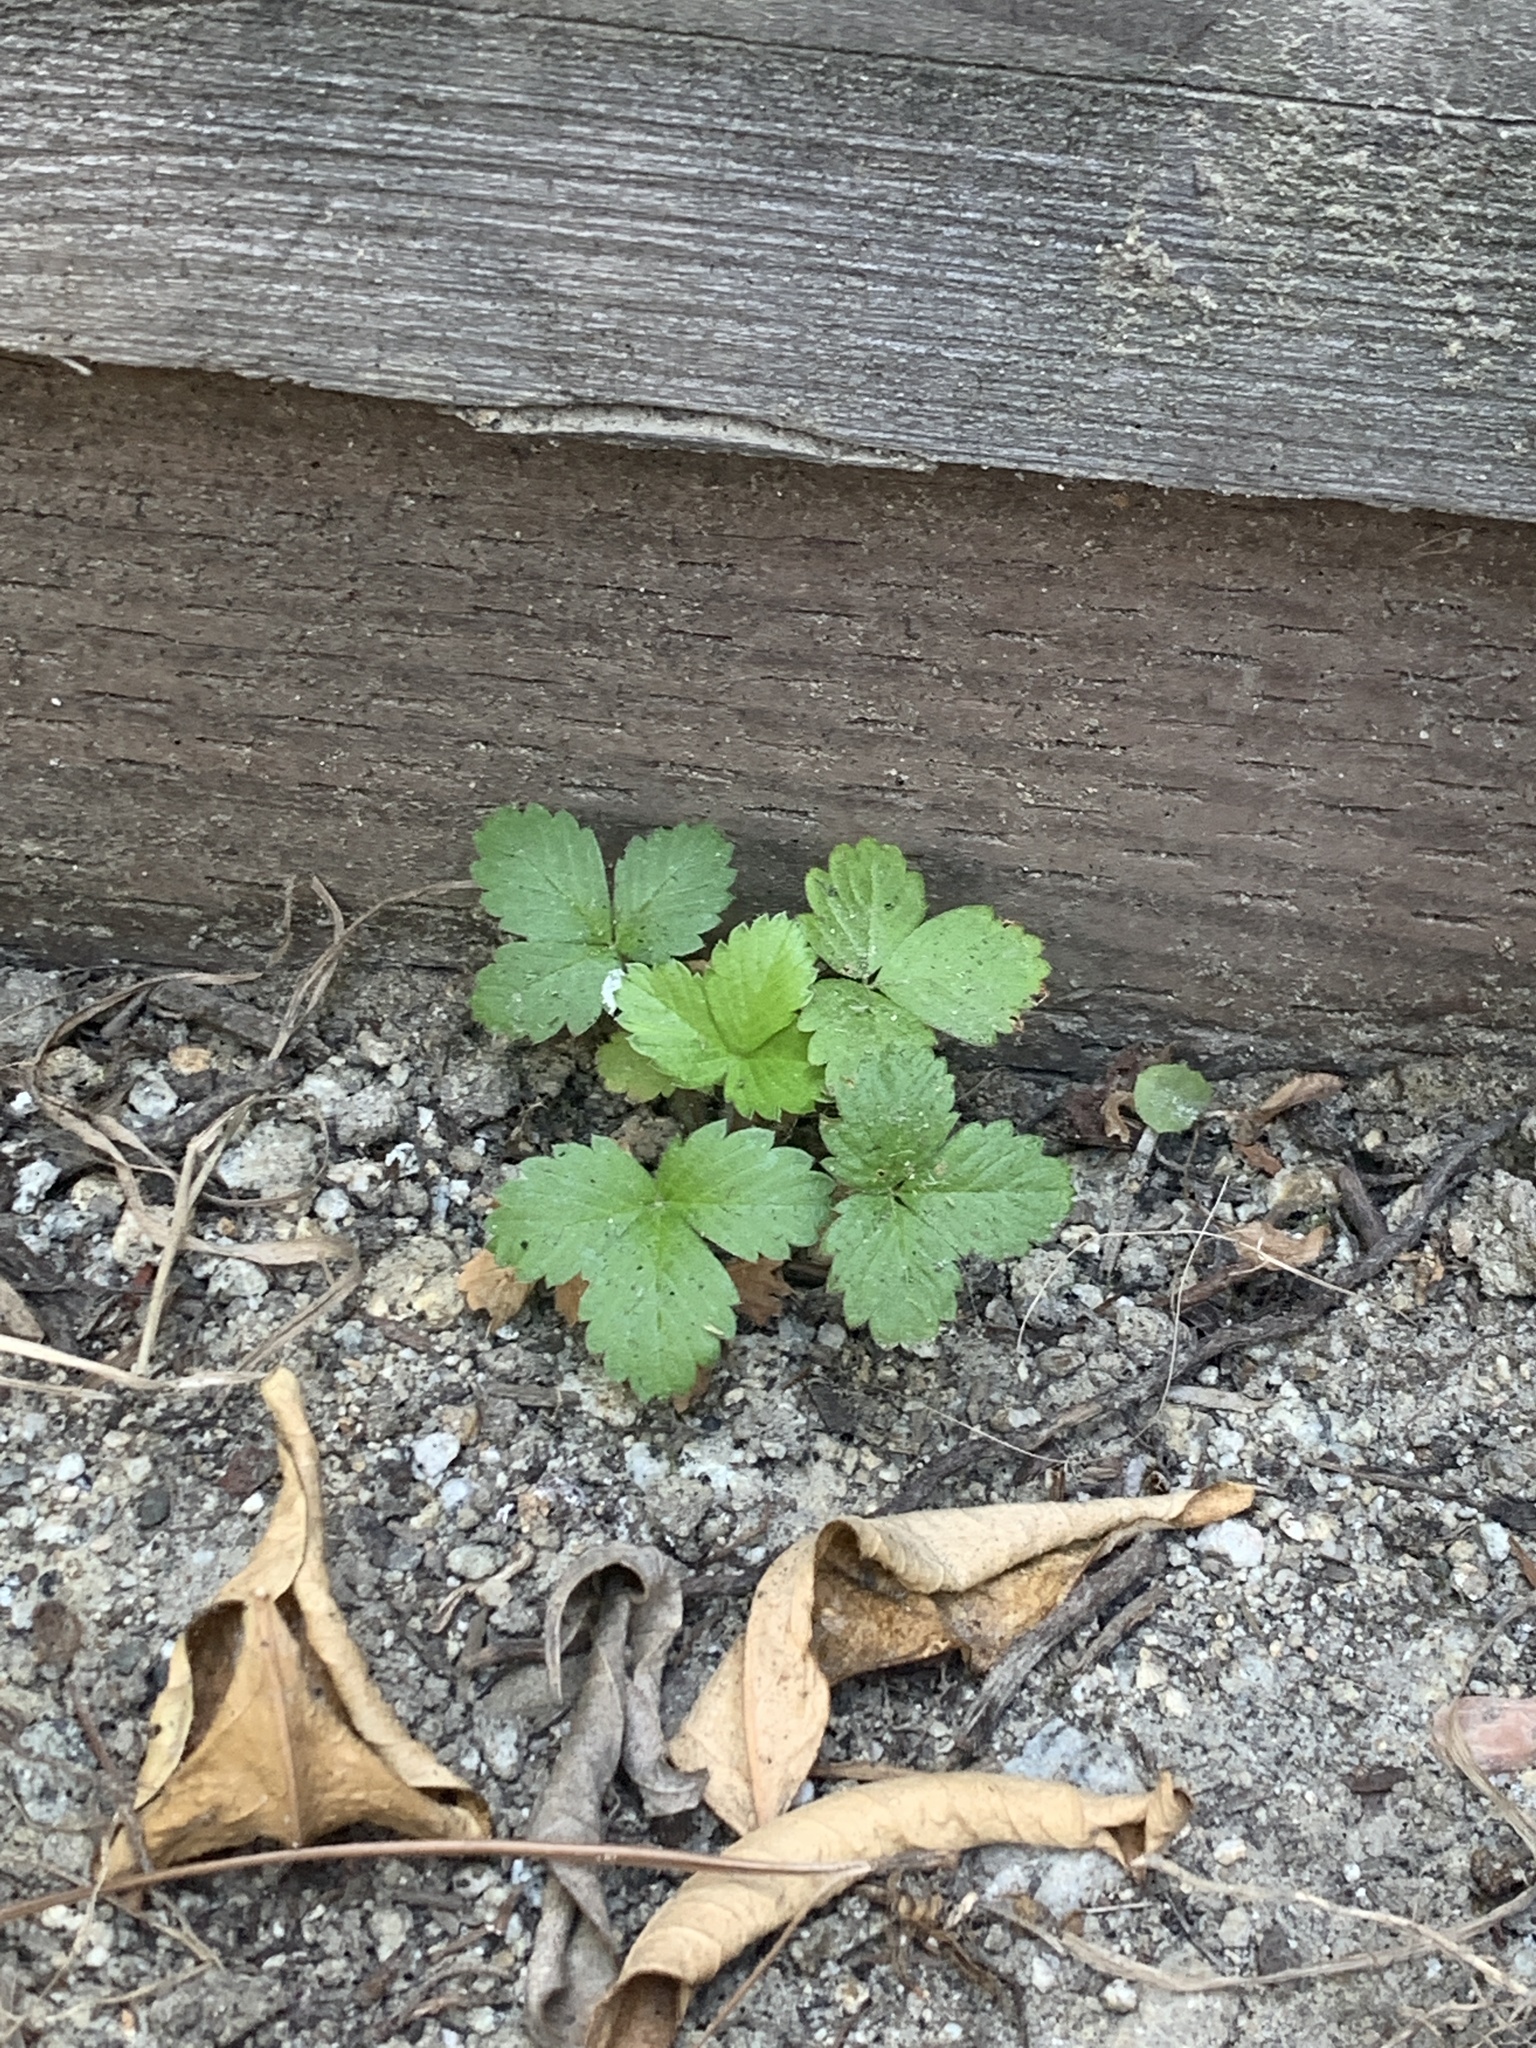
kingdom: Plantae
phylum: Tracheophyta
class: Magnoliopsida
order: Rosales
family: Rosaceae
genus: Fragaria
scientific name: Fragaria vesca
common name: Wild strawberry
